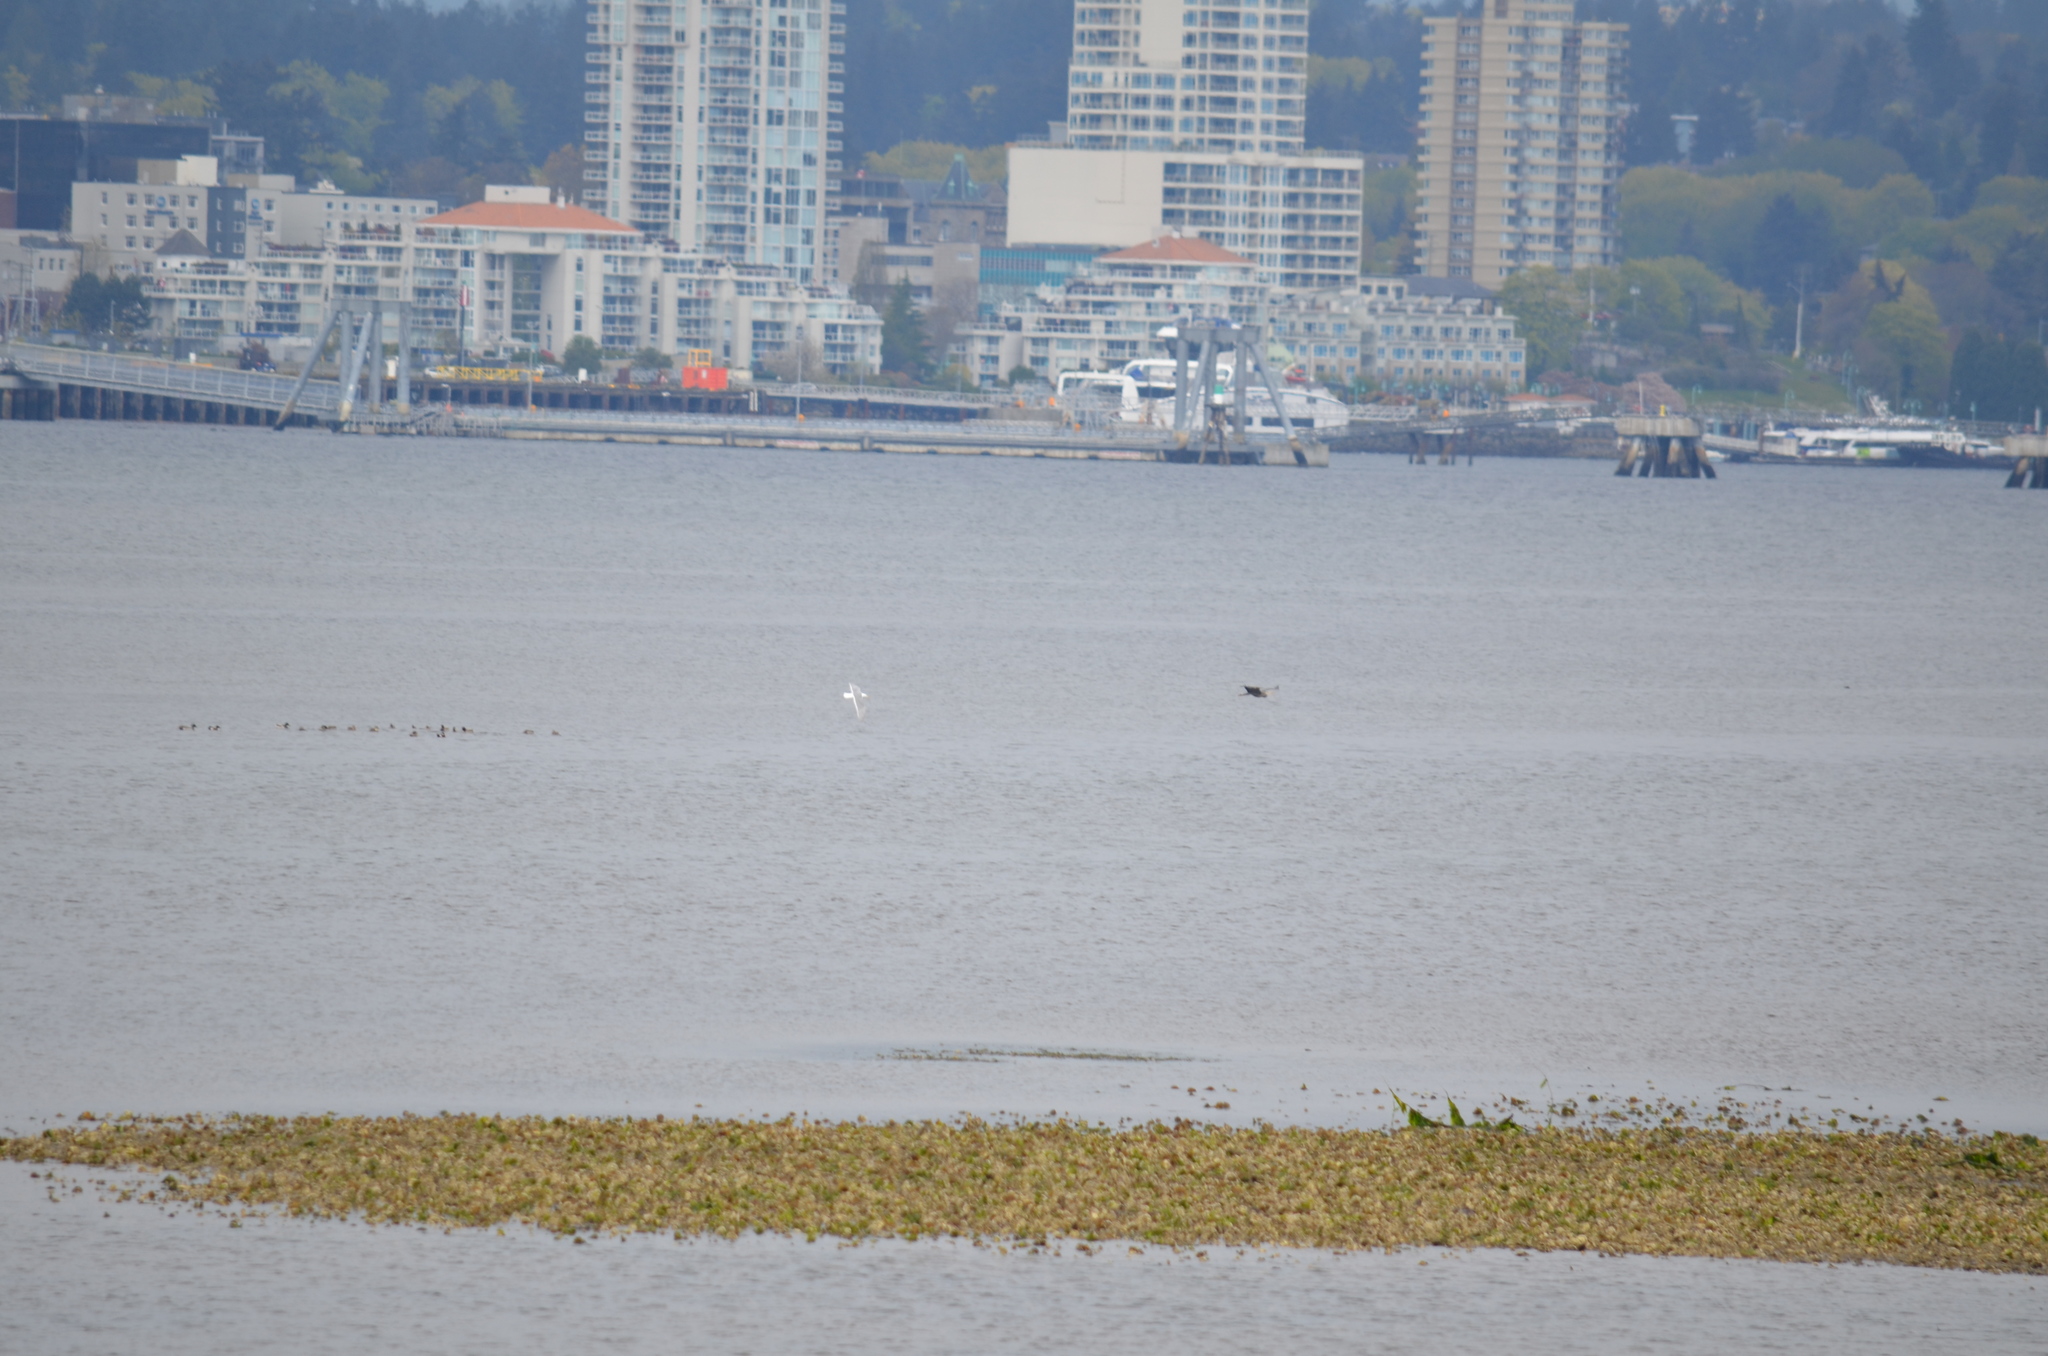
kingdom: Animalia
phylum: Chordata
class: Aves
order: Pelecaniformes
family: Ardeidae
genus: Ardea
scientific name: Ardea herodias
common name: Great blue heron
